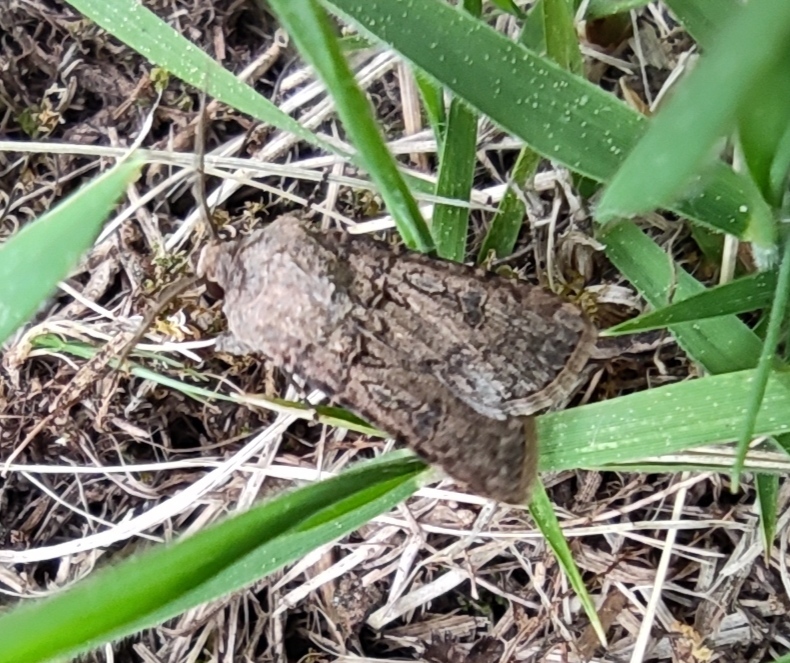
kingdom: Animalia
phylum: Arthropoda
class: Insecta
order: Lepidoptera
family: Noctuidae
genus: Agrotis
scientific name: Agrotis segetum
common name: Turnip moth
